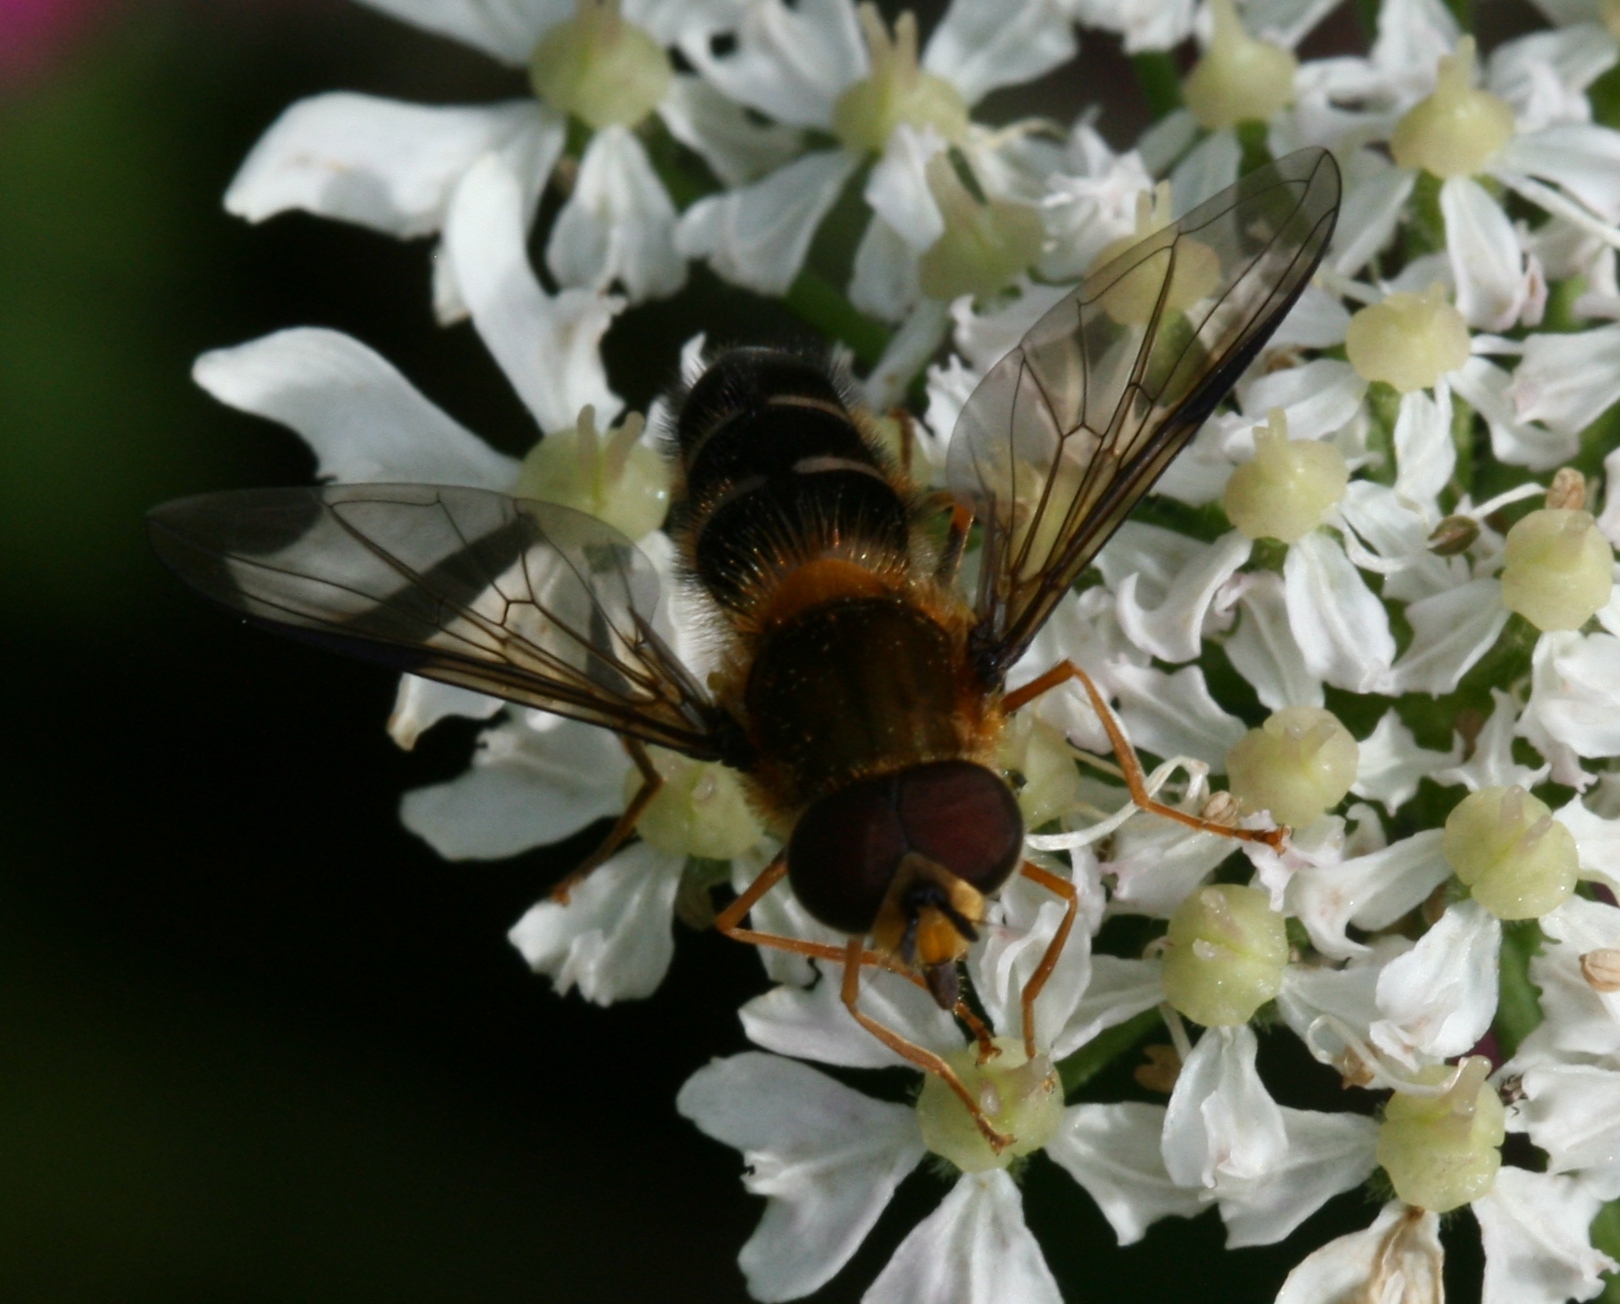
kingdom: Animalia
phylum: Arthropoda
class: Insecta
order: Diptera
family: Syrphidae
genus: Leucozona
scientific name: Leucozona glaucia
